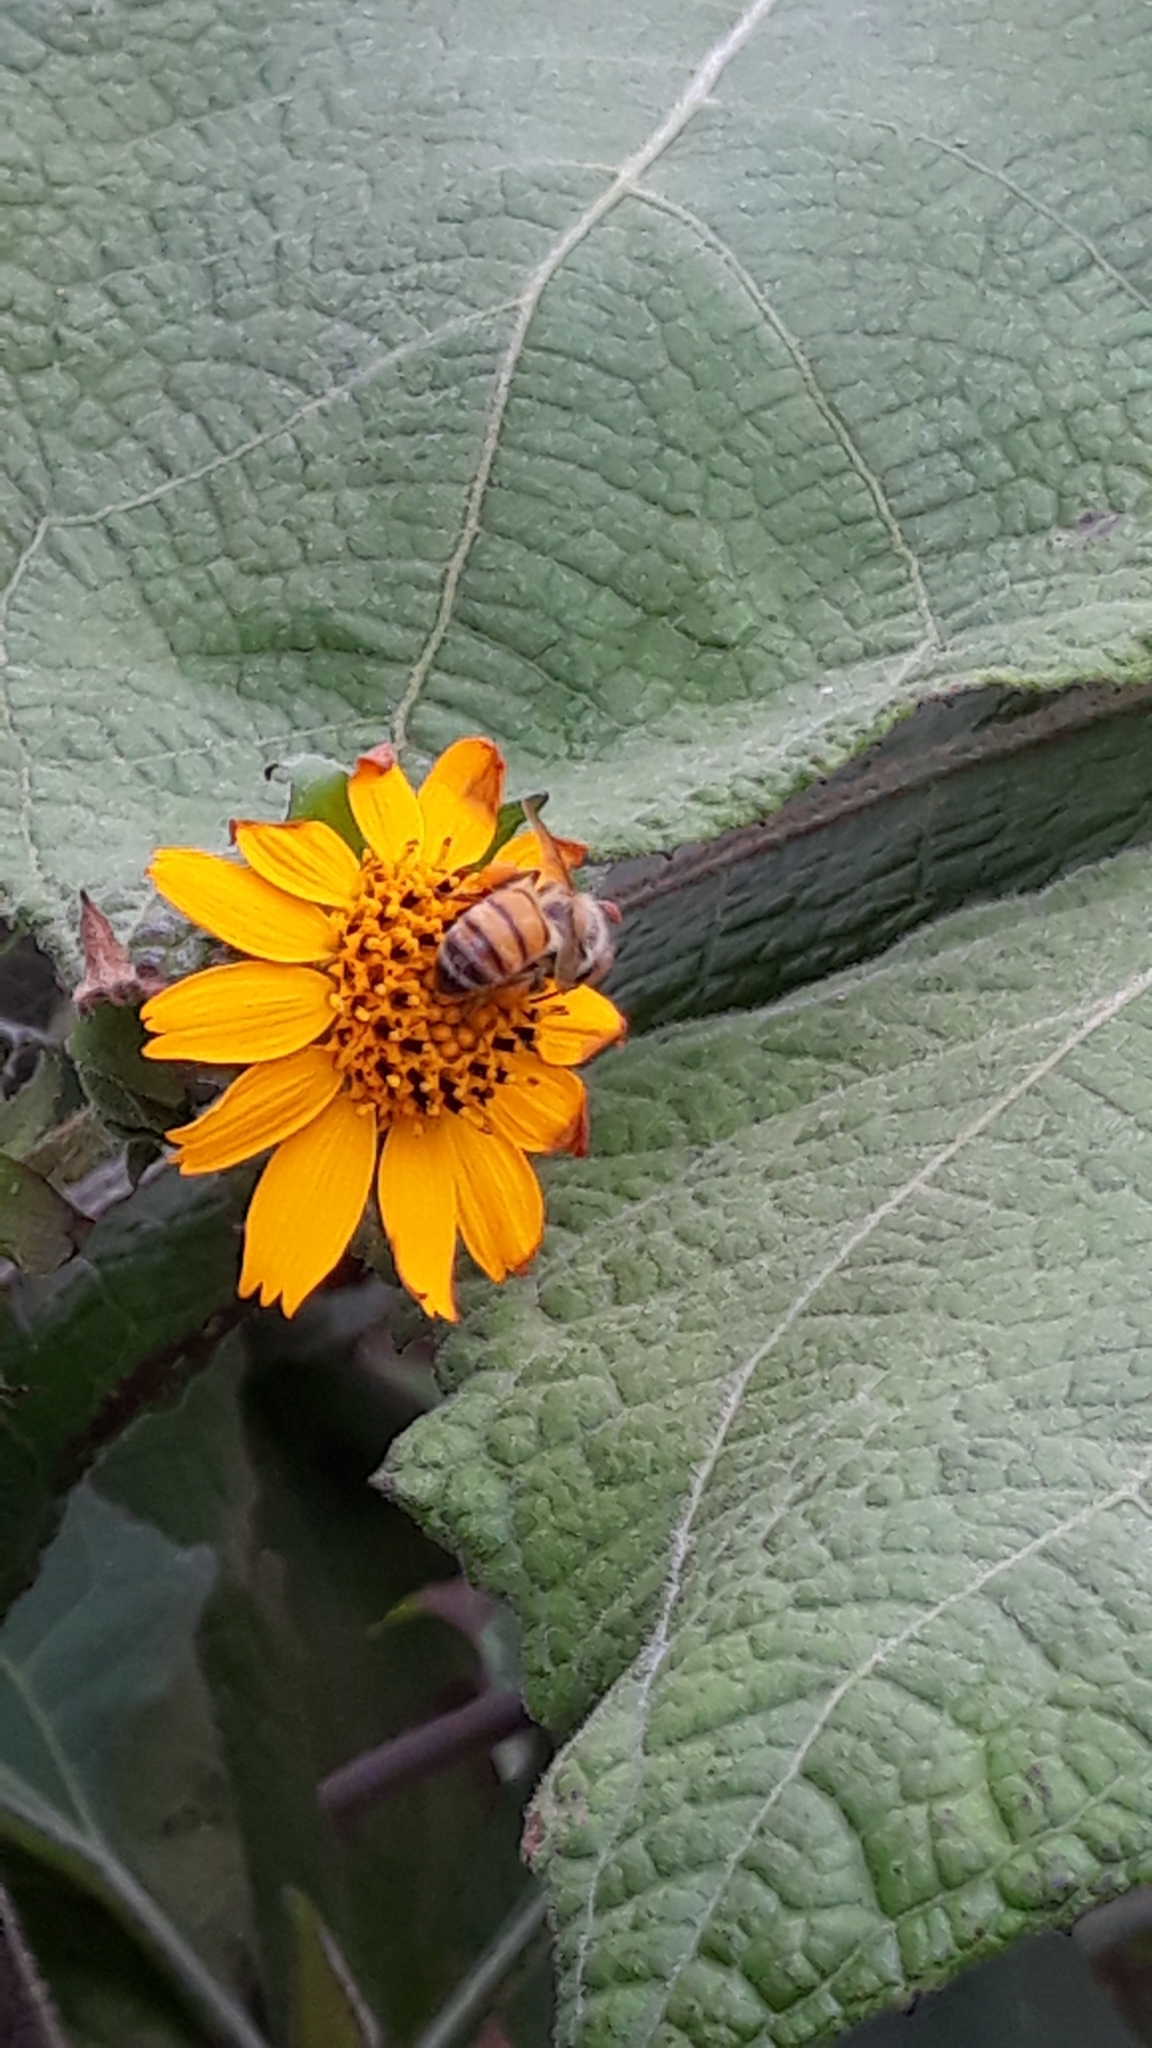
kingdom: Animalia
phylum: Arthropoda
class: Insecta
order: Hymenoptera
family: Apidae
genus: Apis
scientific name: Apis mellifera
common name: Honey bee
